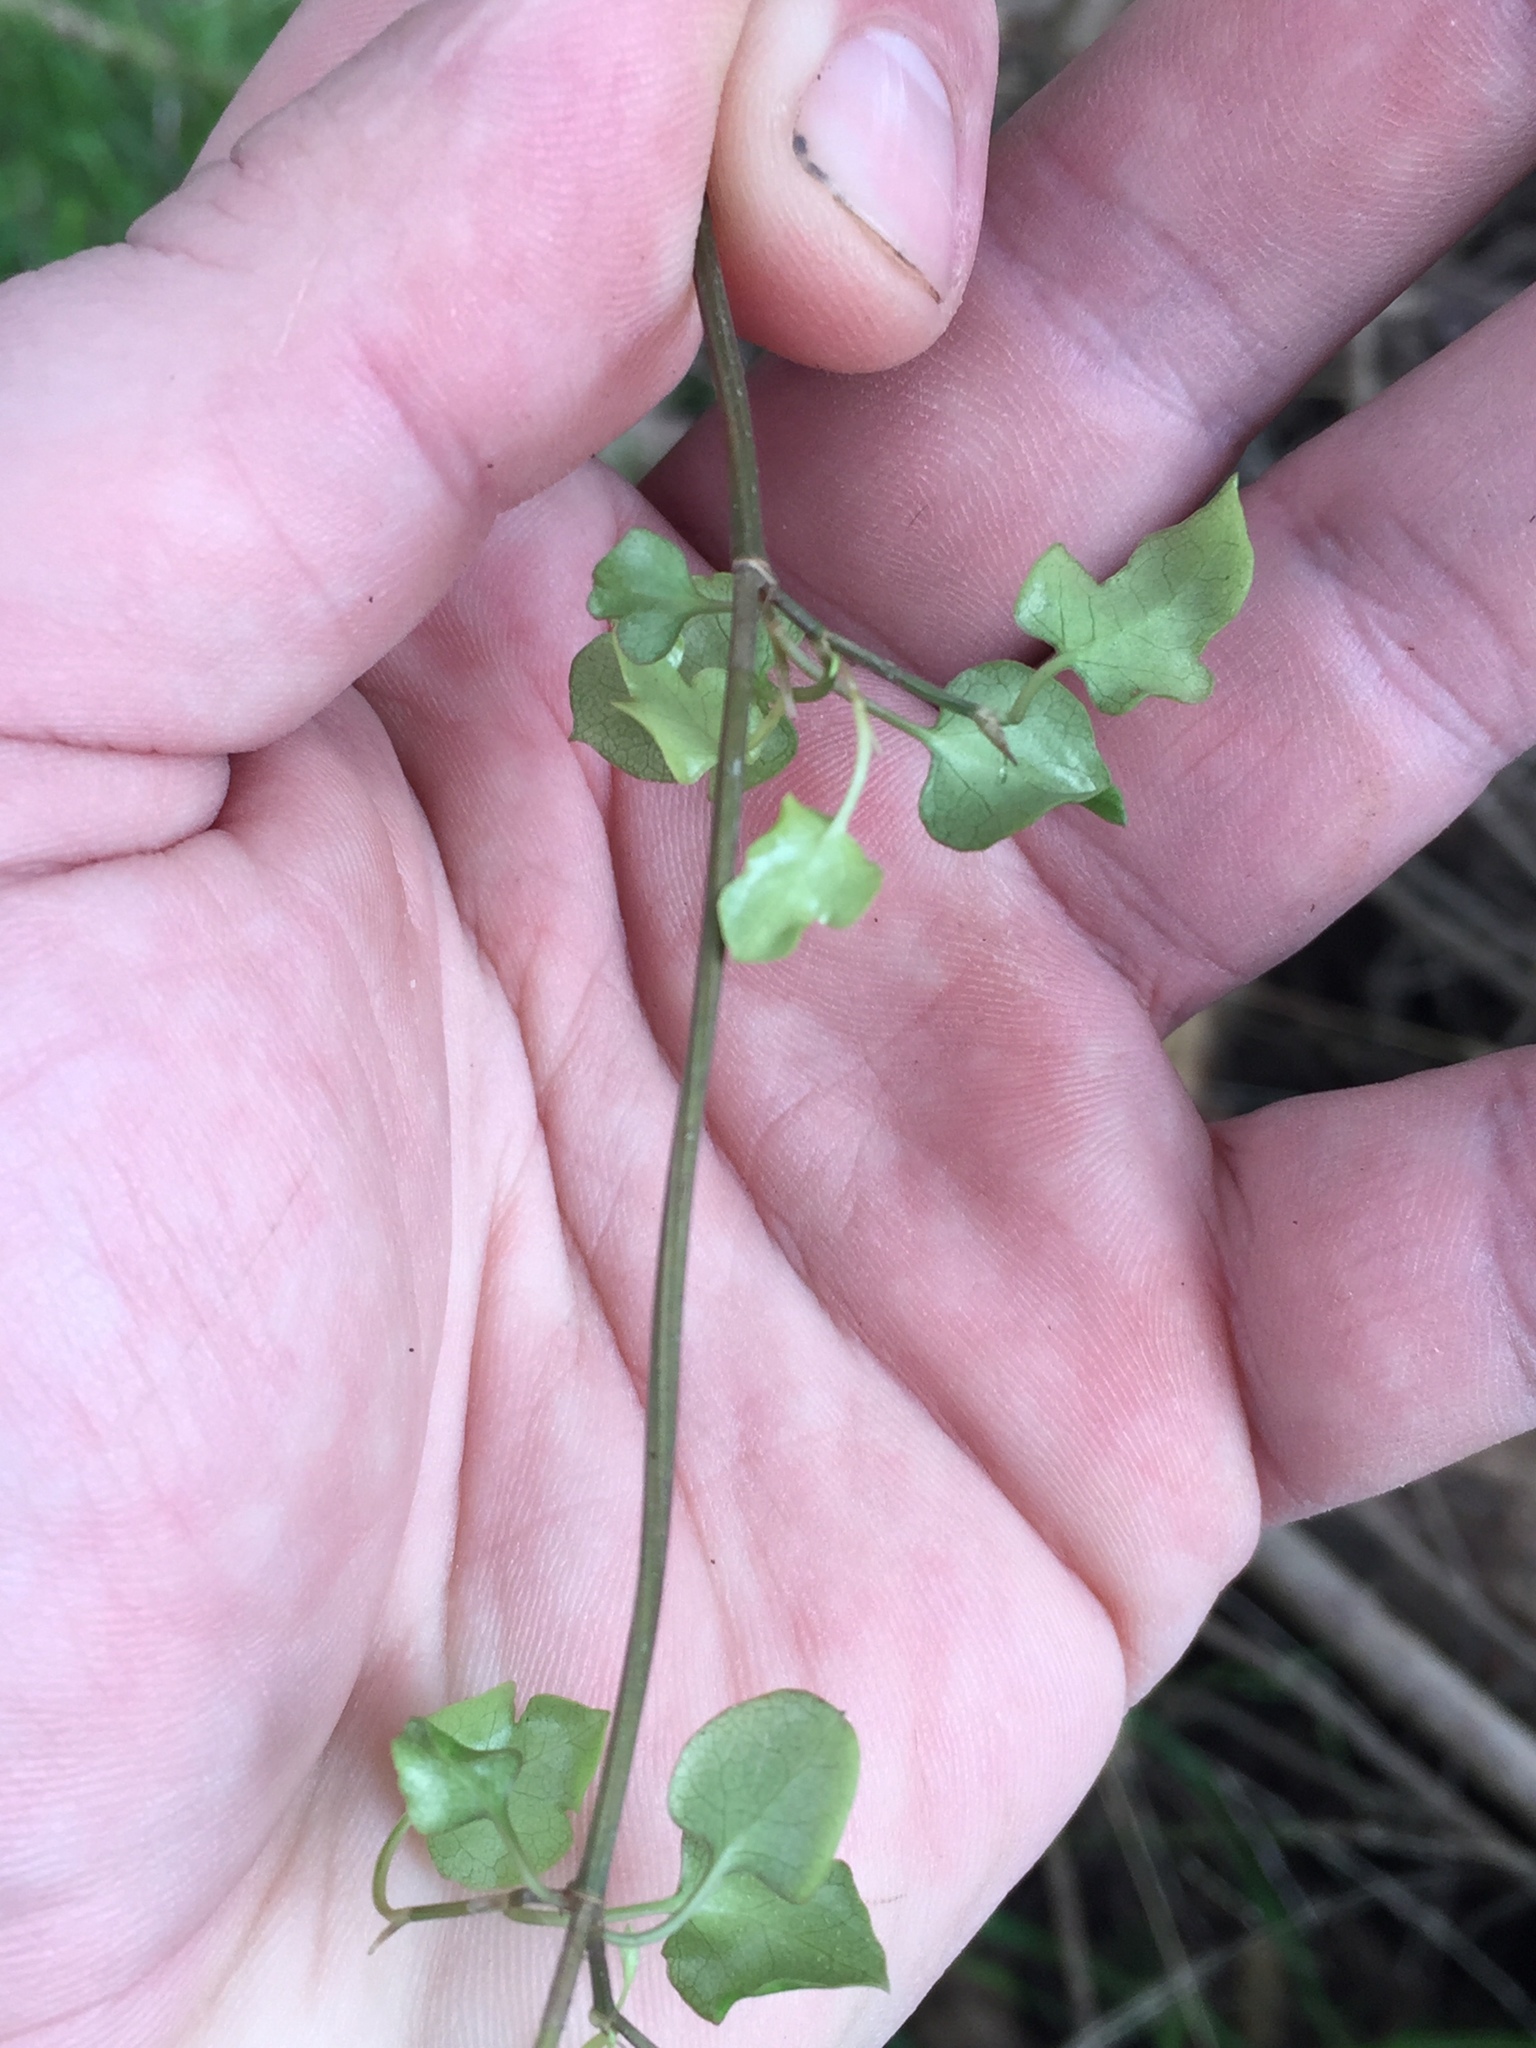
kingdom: Plantae
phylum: Tracheophyta
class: Magnoliopsida
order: Caryophyllales
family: Polygonaceae
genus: Muehlenbeckia
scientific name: Muehlenbeckia australis
